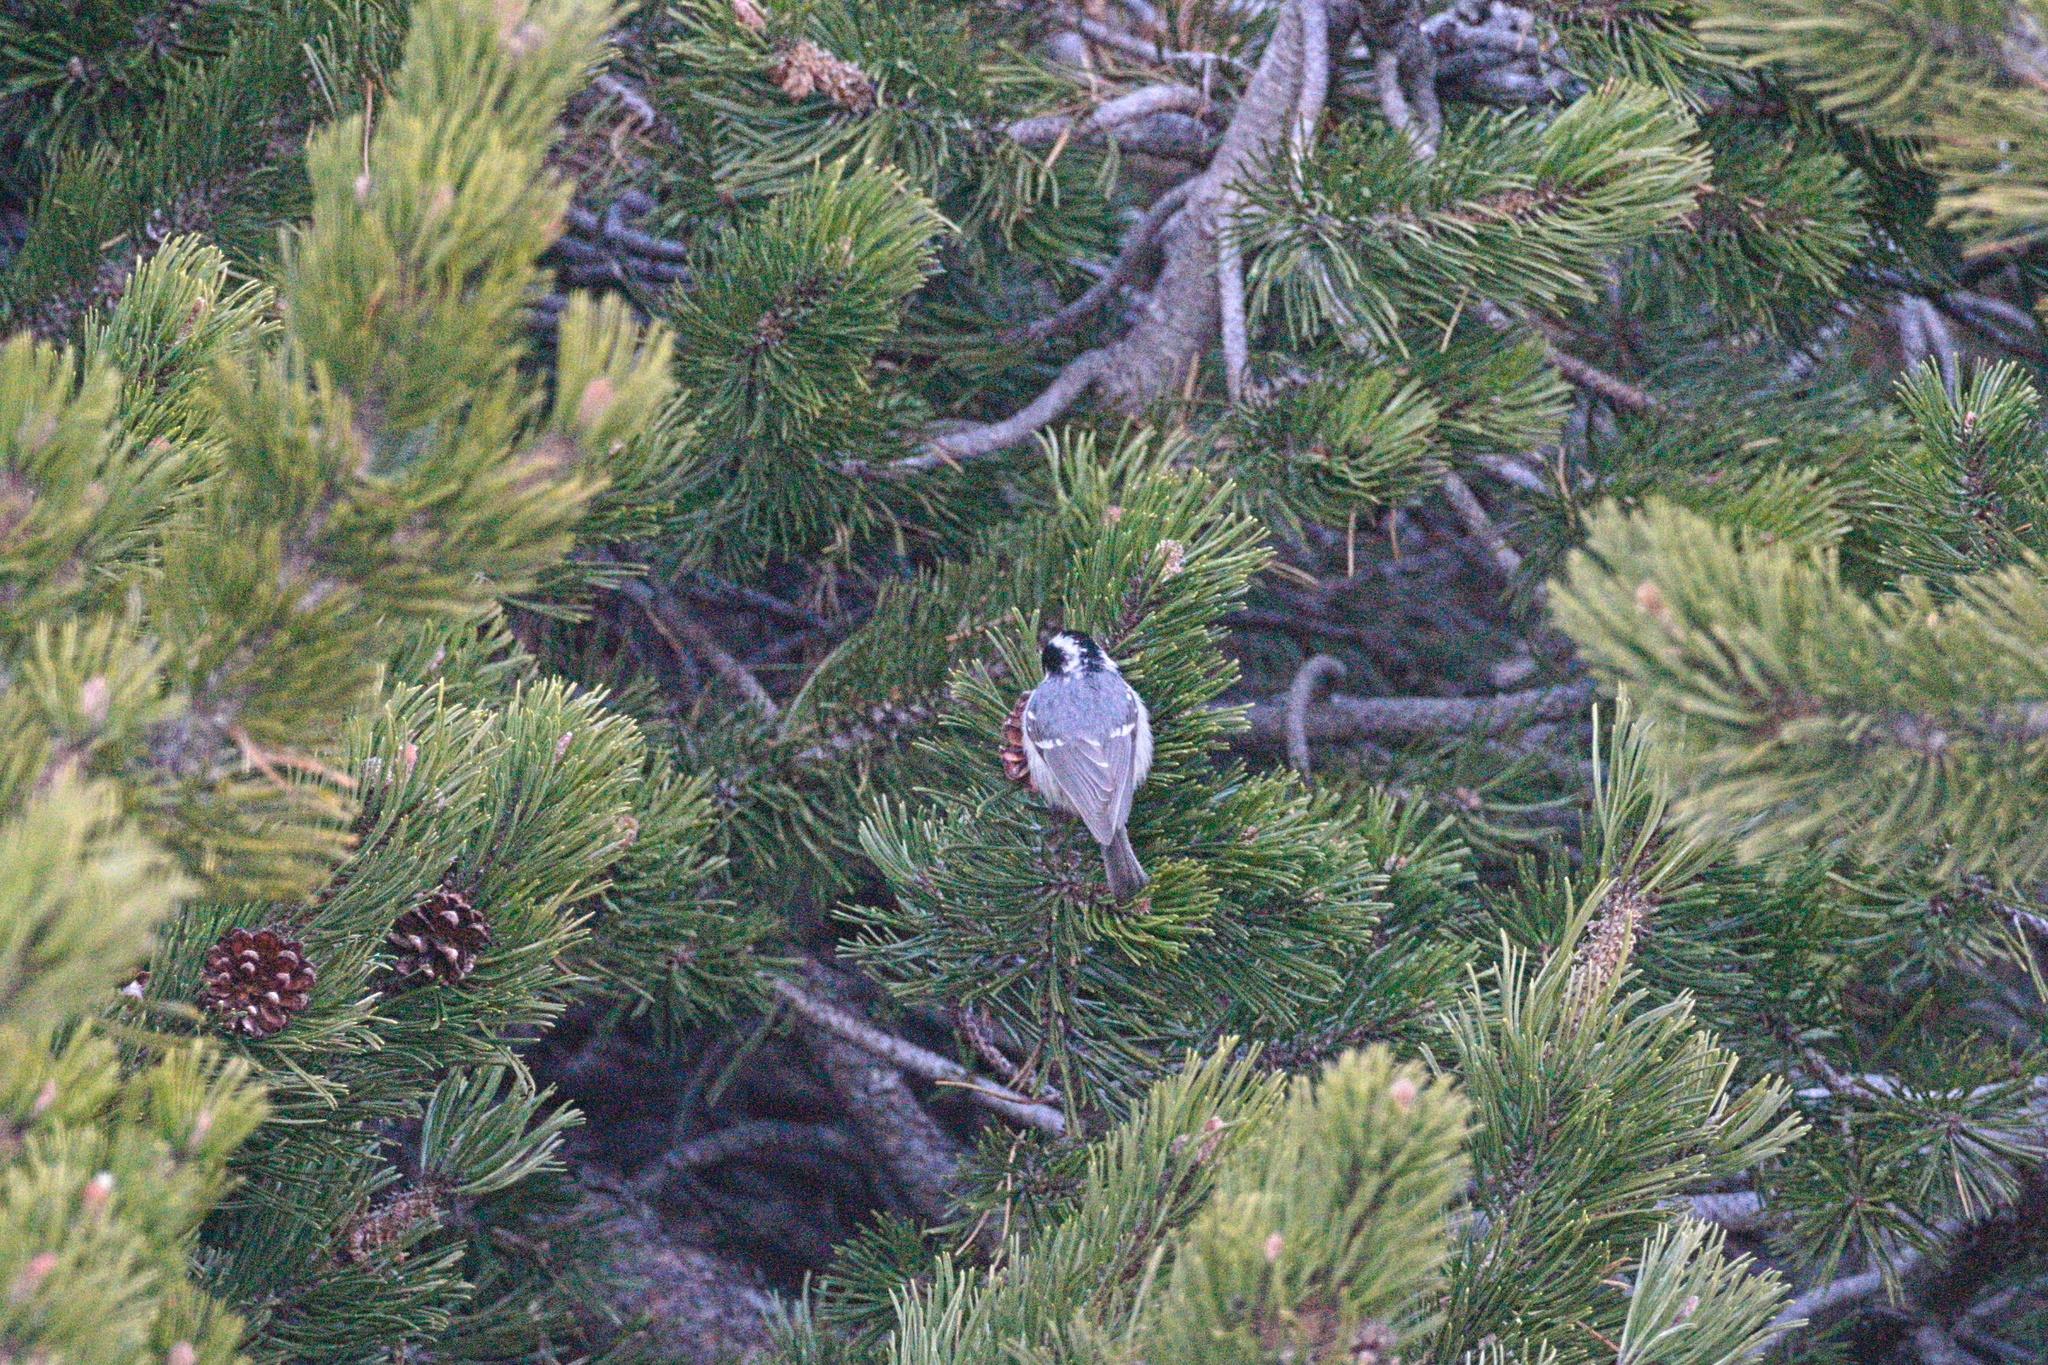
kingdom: Animalia
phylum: Chordata
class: Aves
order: Passeriformes
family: Paridae
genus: Periparus
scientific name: Periparus ater
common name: Coal tit
